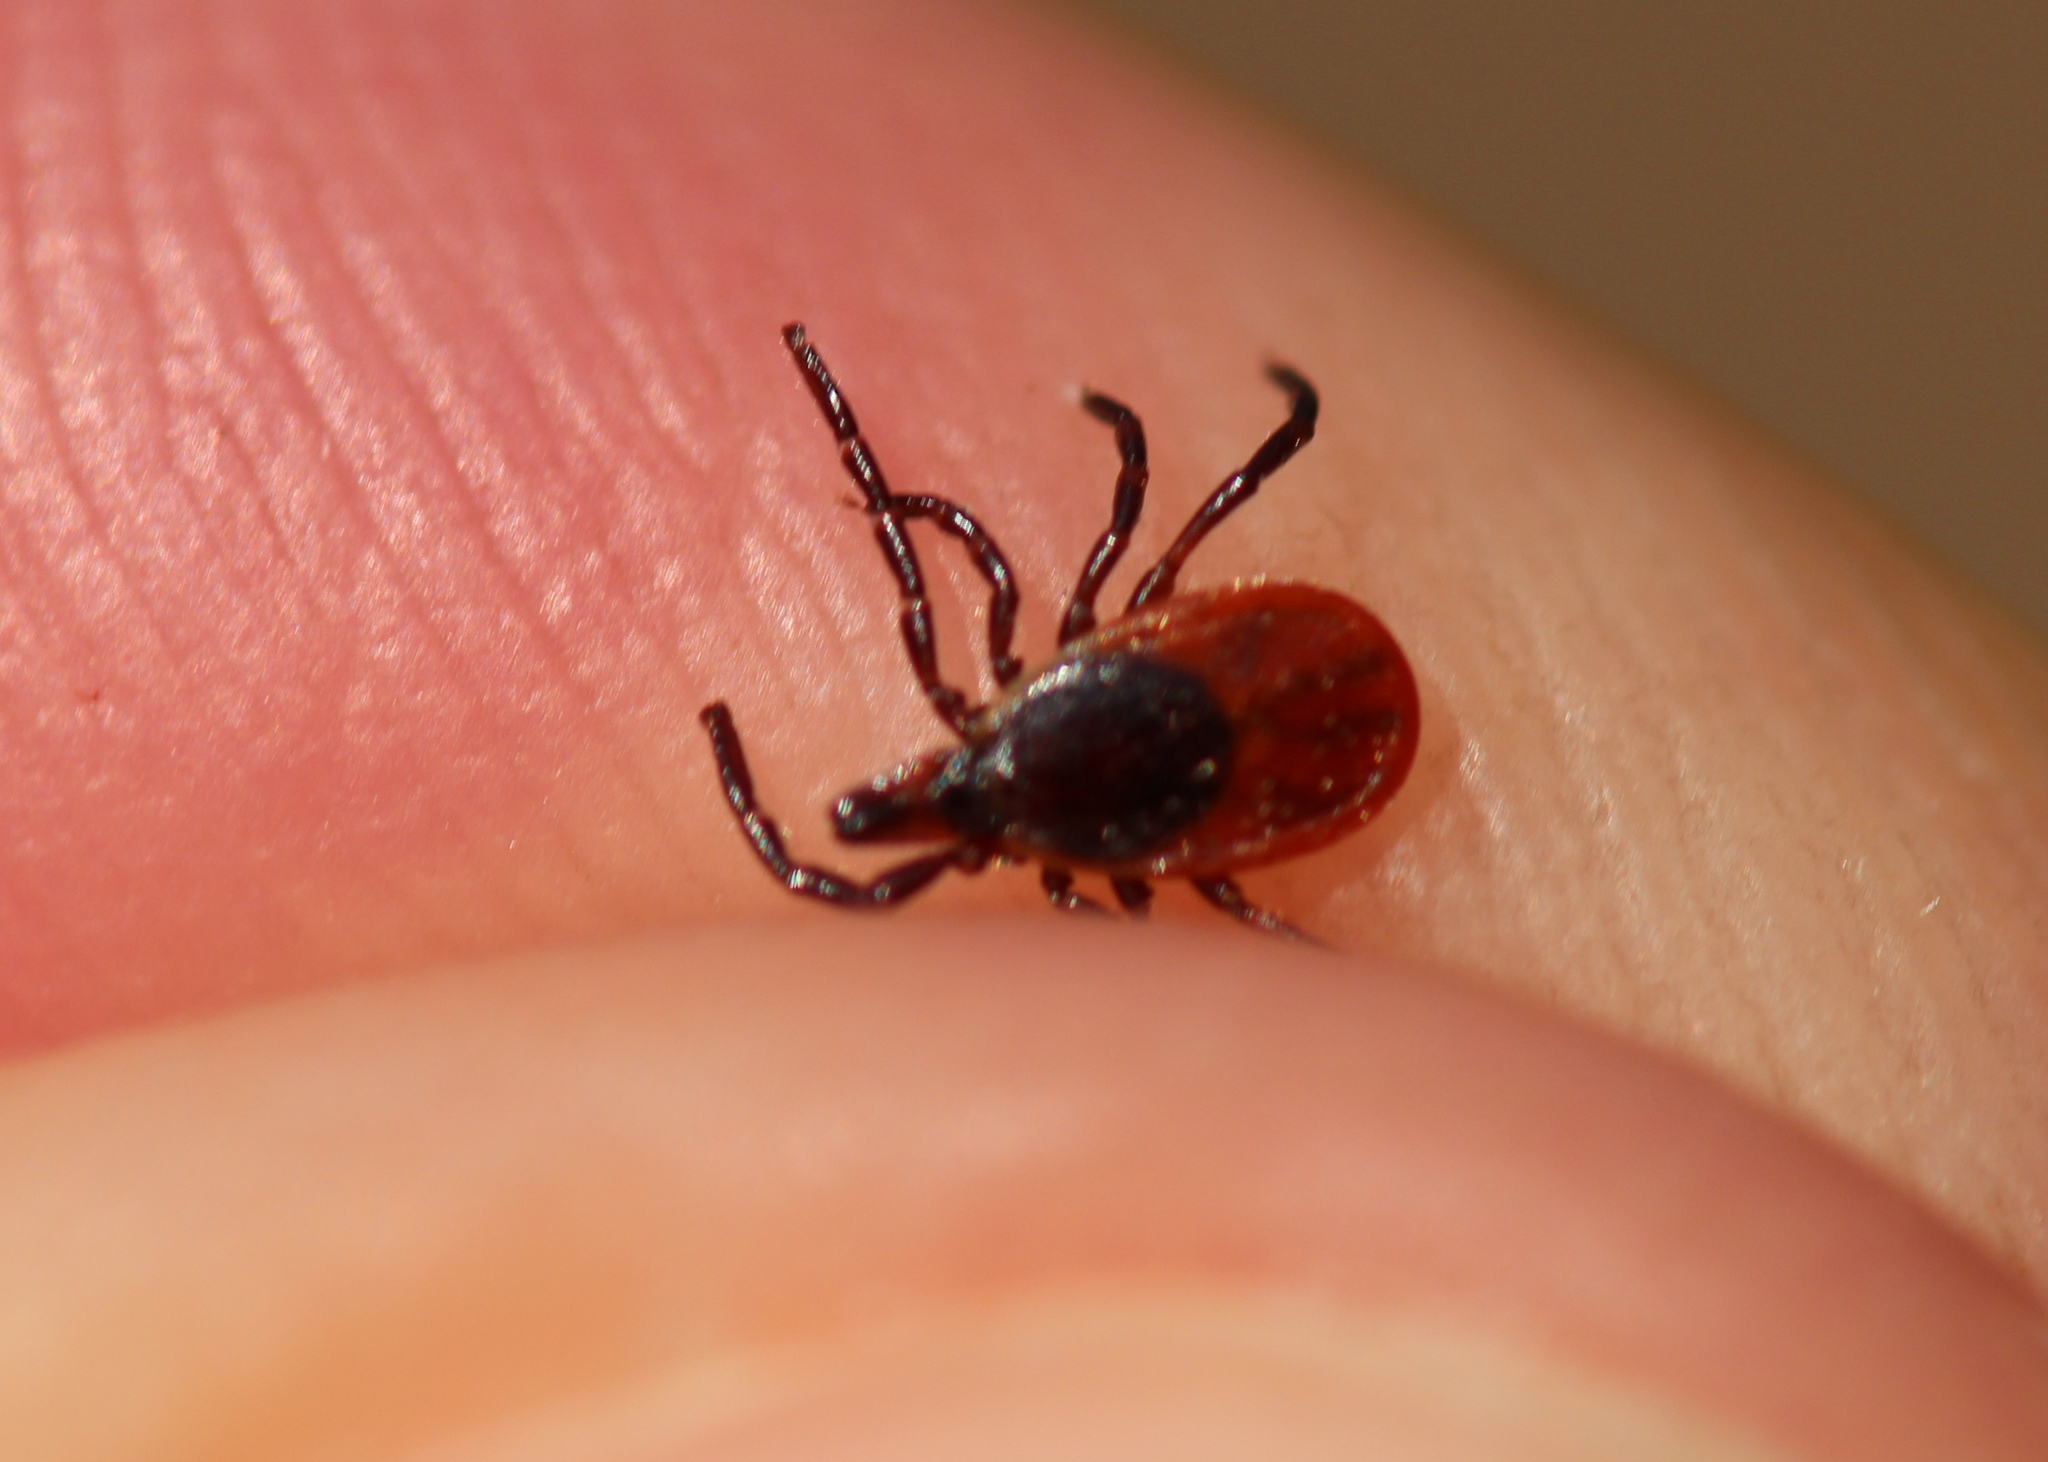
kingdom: Animalia
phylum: Arthropoda
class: Arachnida
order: Ixodida
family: Ixodidae
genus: Ixodes
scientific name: Ixodes scapularis
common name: Black legged tick
